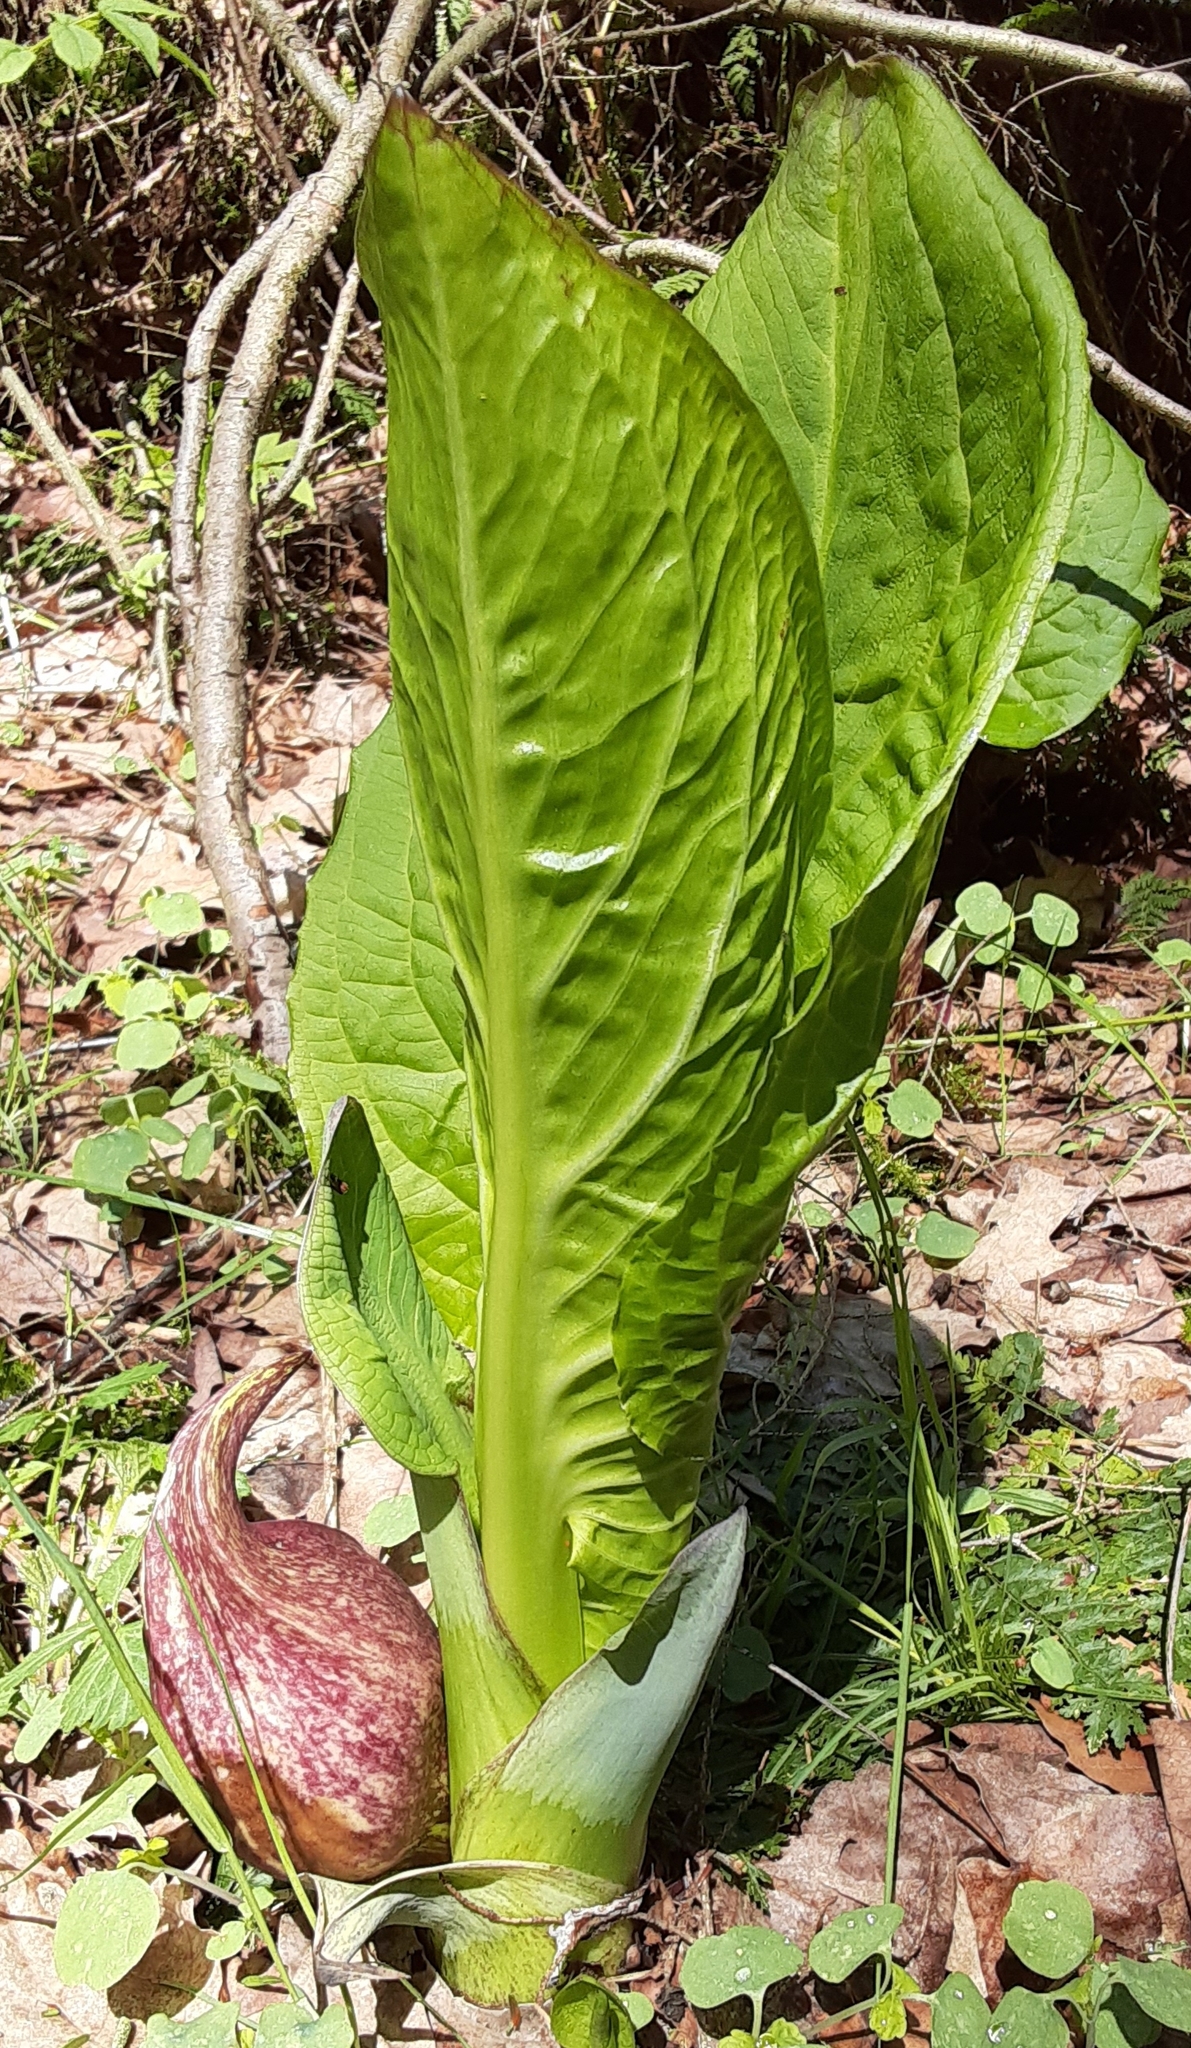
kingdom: Plantae
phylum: Tracheophyta
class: Liliopsida
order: Alismatales
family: Araceae
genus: Symplocarpus
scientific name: Symplocarpus foetidus
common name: Eastern skunk cabbage
